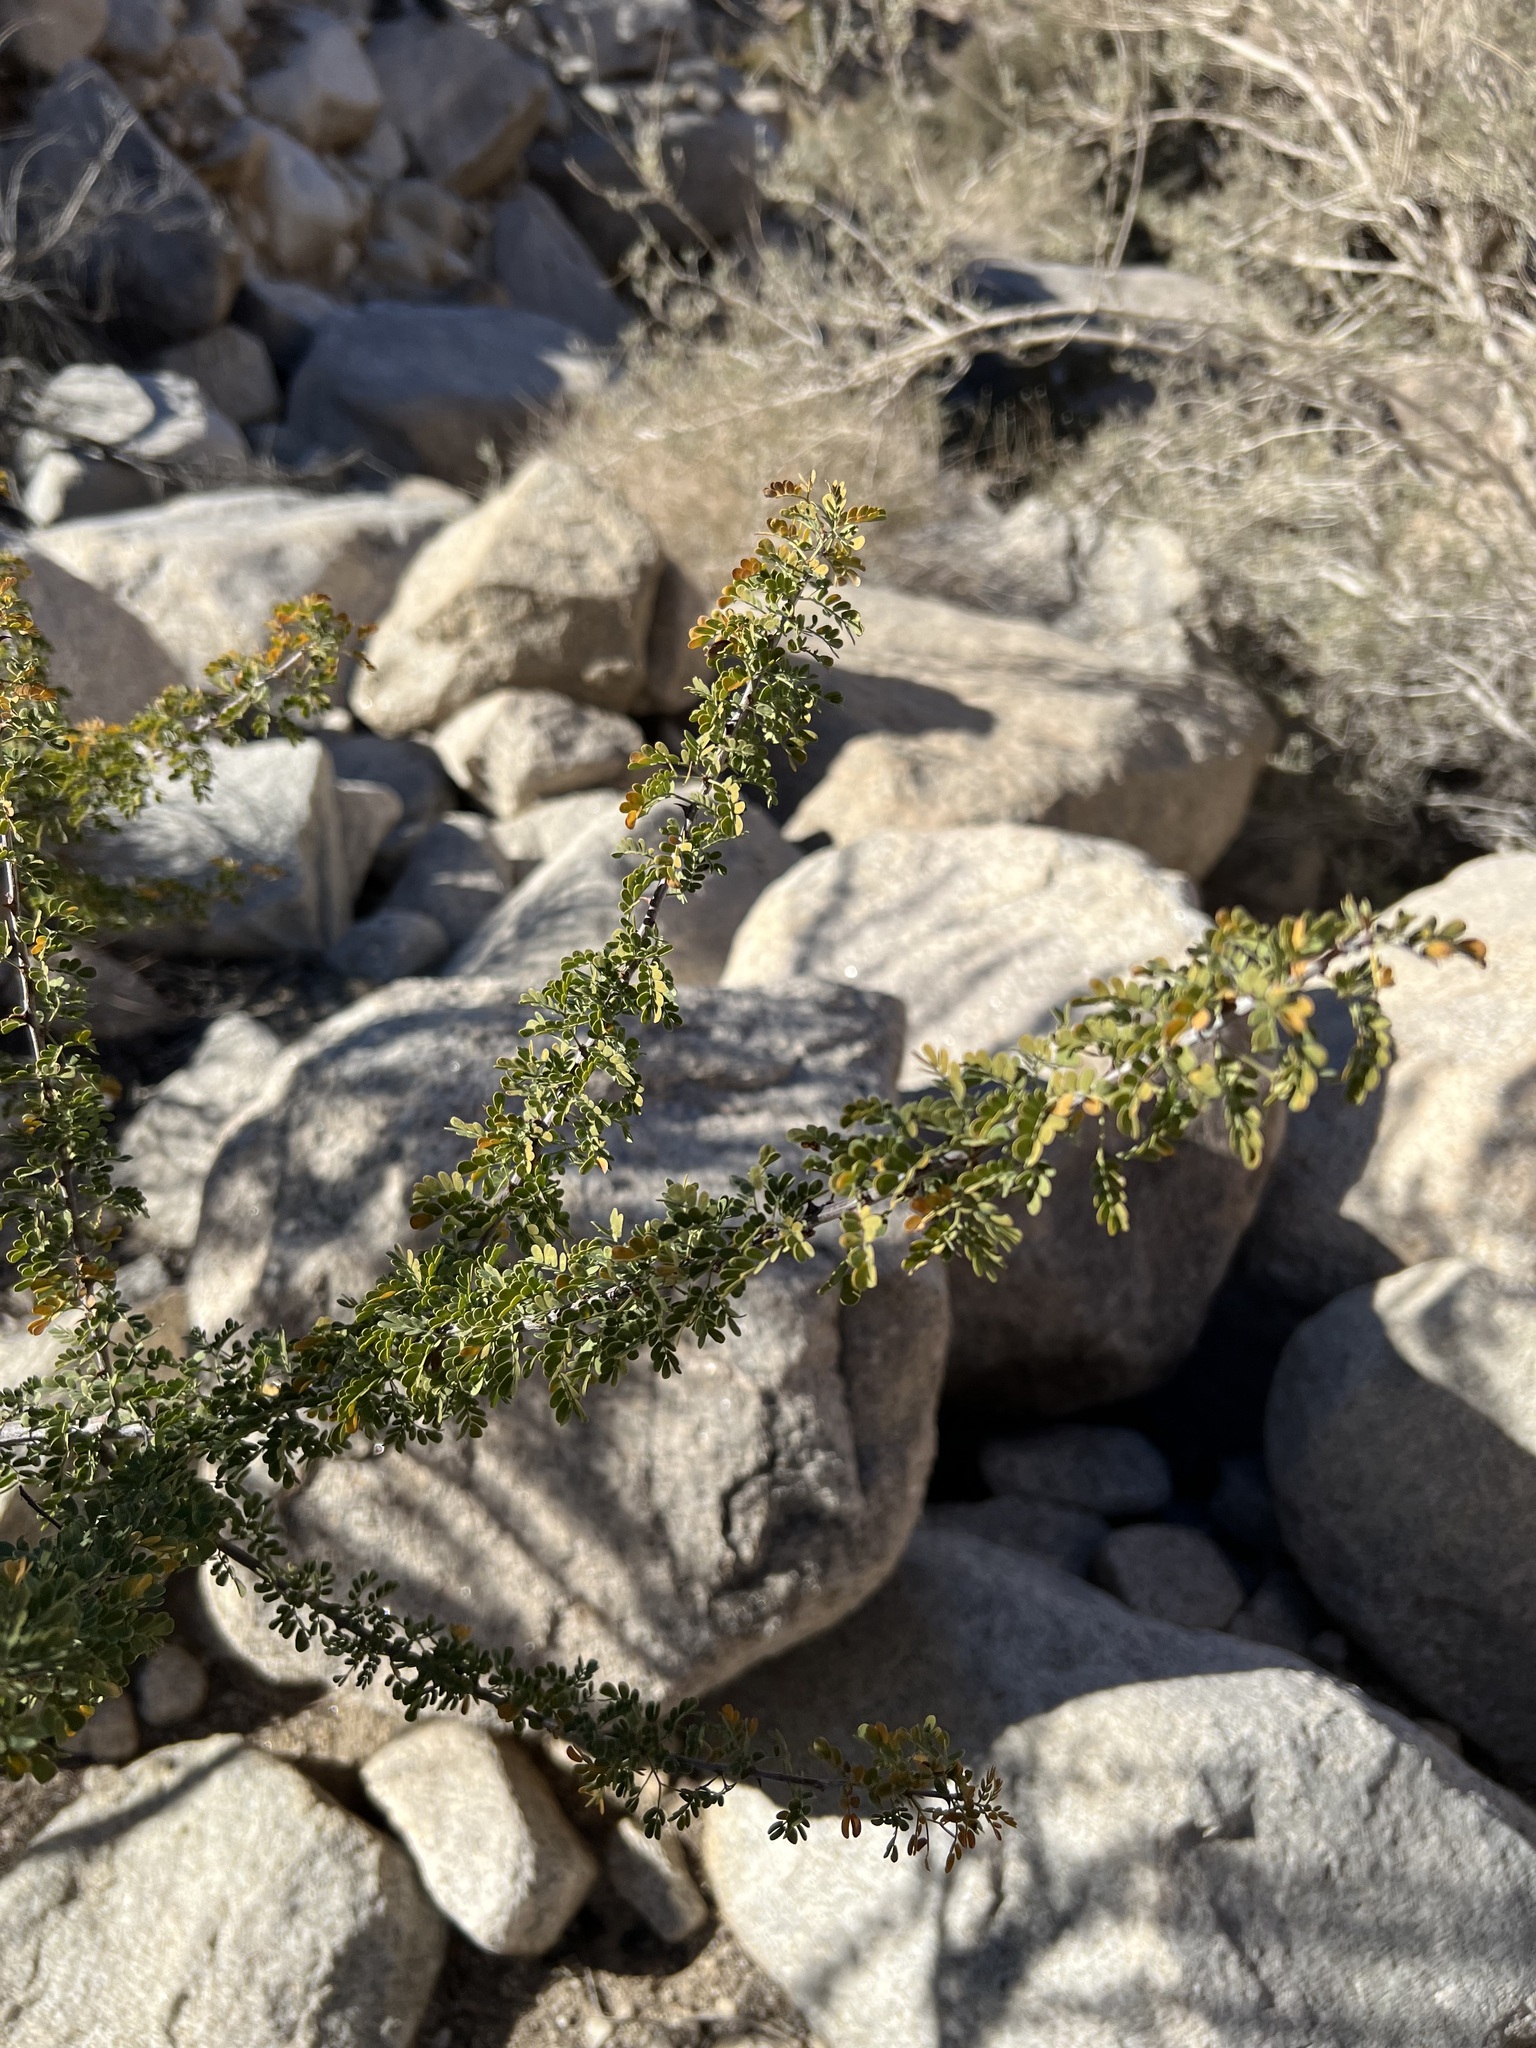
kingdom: Plantae
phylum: Tracheophyta
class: Magnoliopsida
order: Fabales
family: Fabaceae
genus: Senegalia
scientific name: Senegalia greggii
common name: Texas-mimosa
